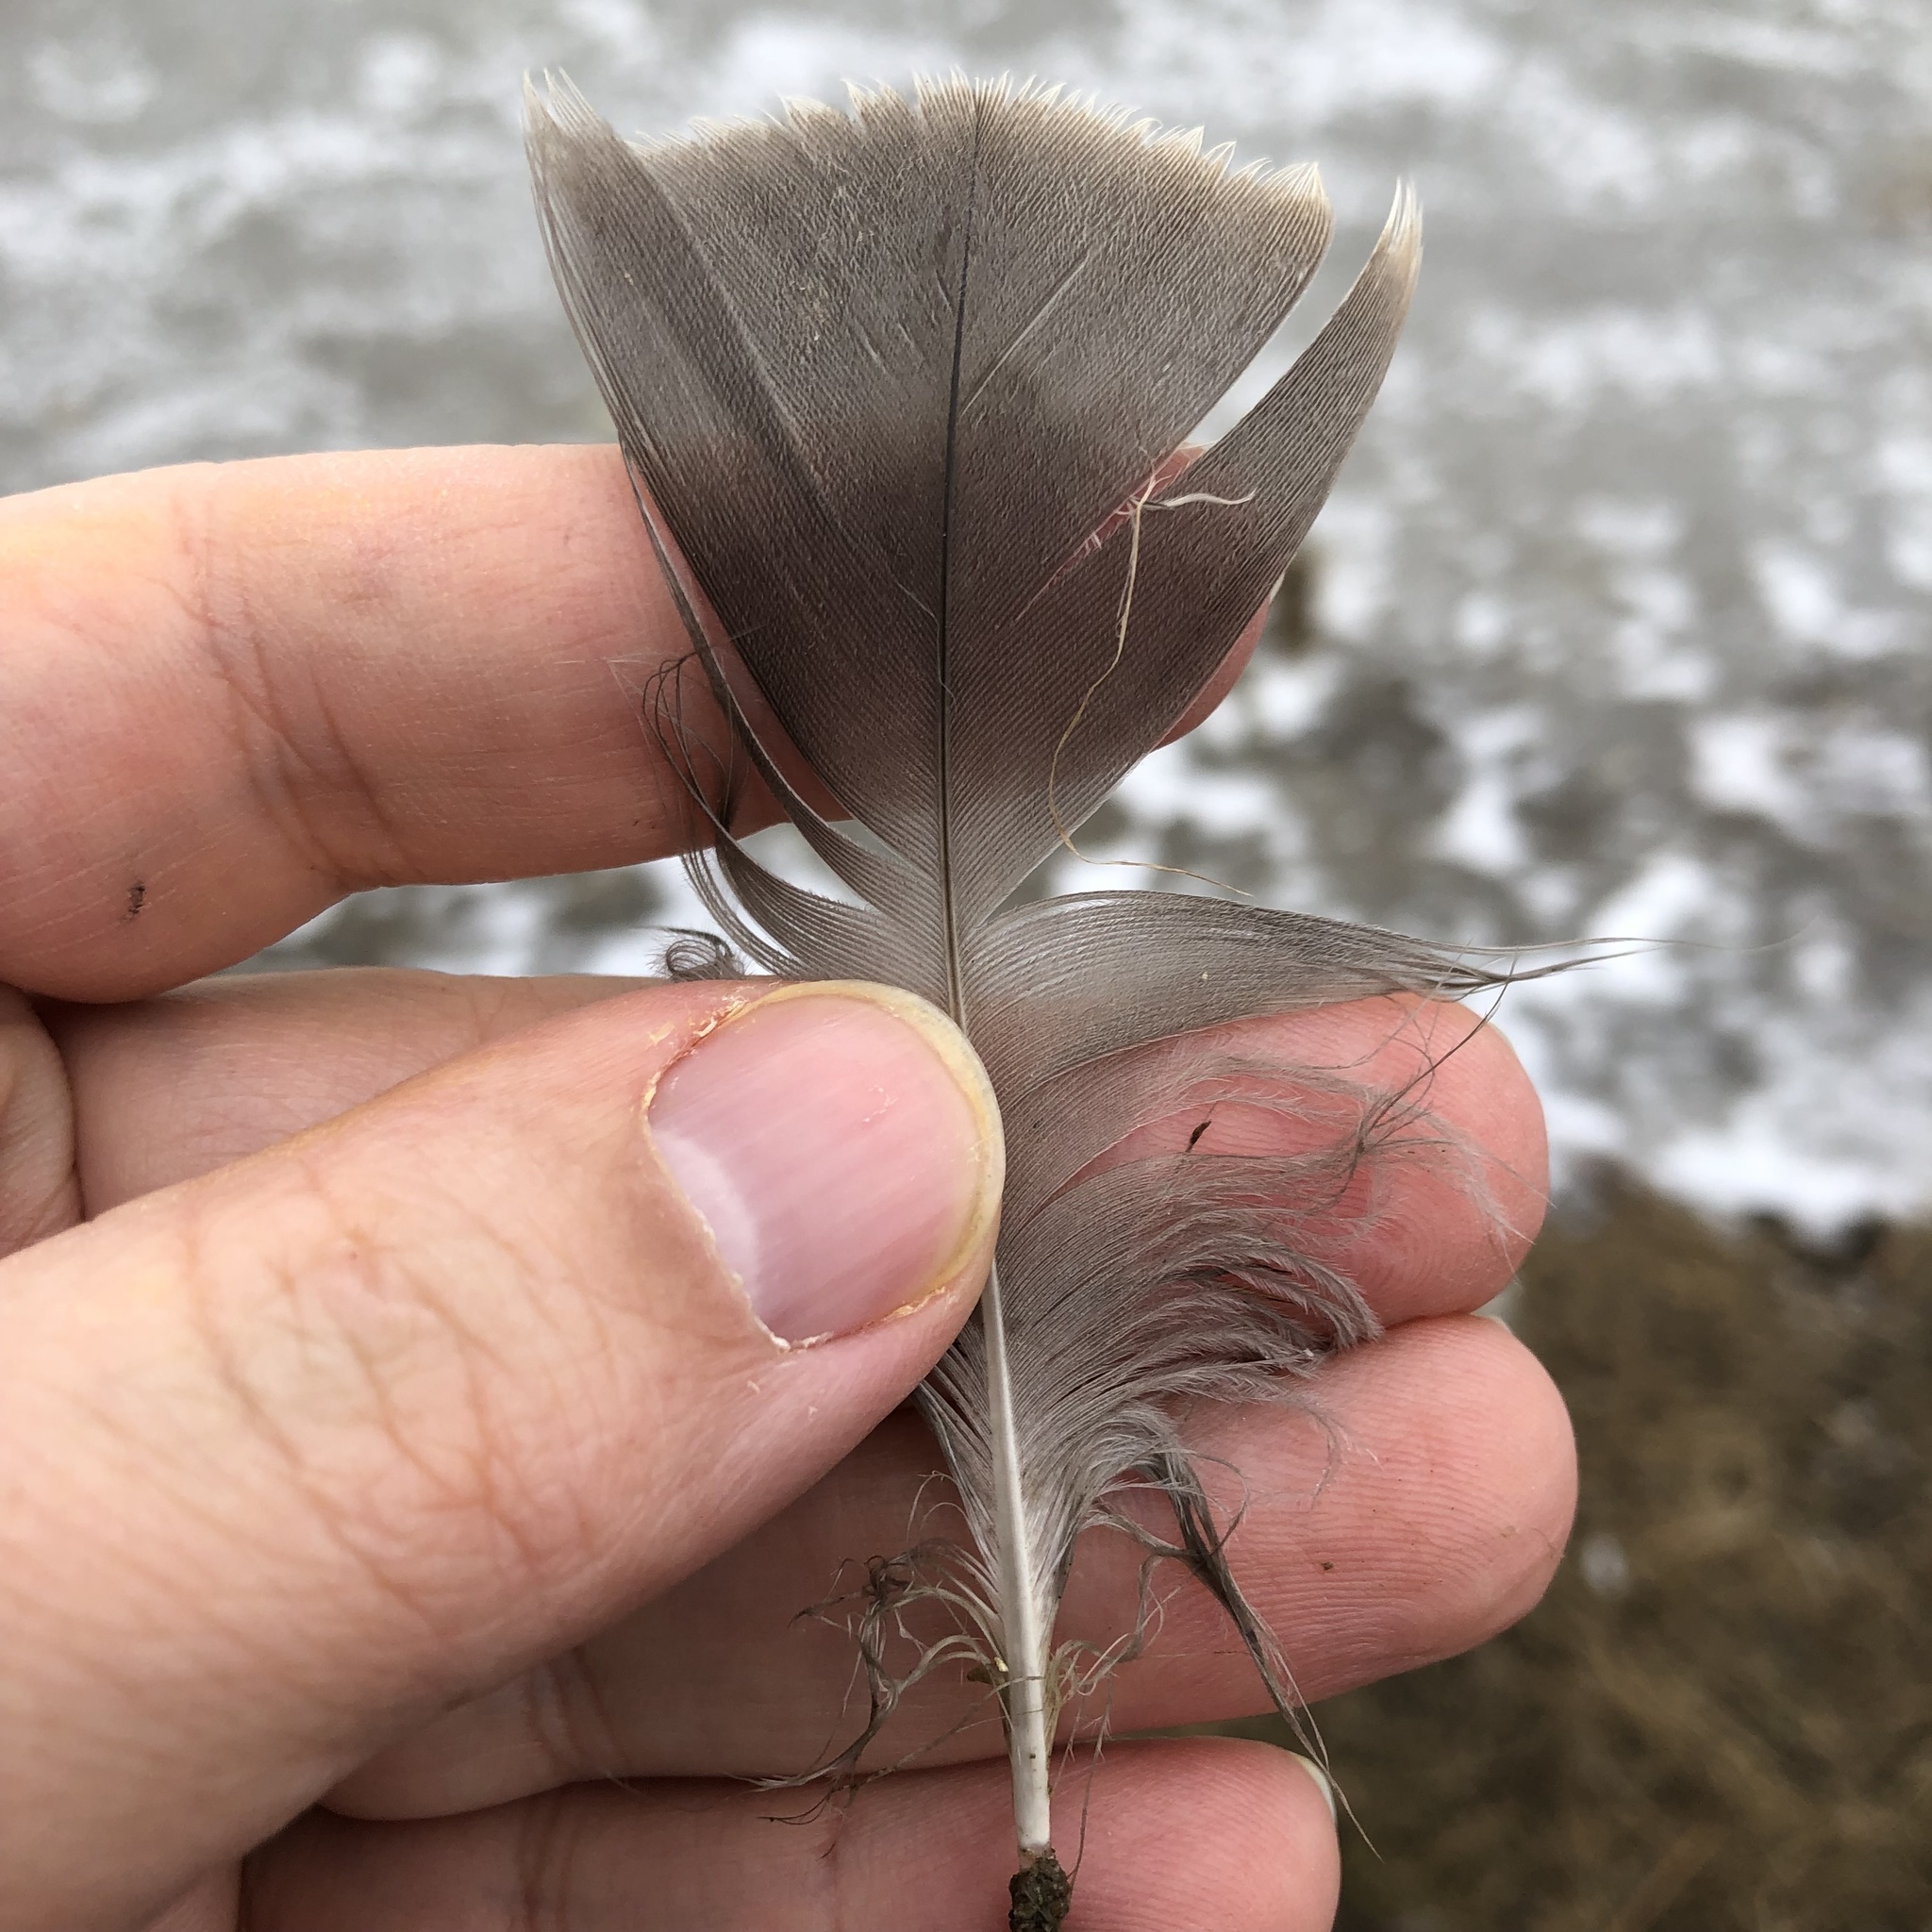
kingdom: Animalia
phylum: Chordata
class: Aves
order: Anseriformes
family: Anatidae
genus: Branta
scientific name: Branta canadensis
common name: Canada goose
